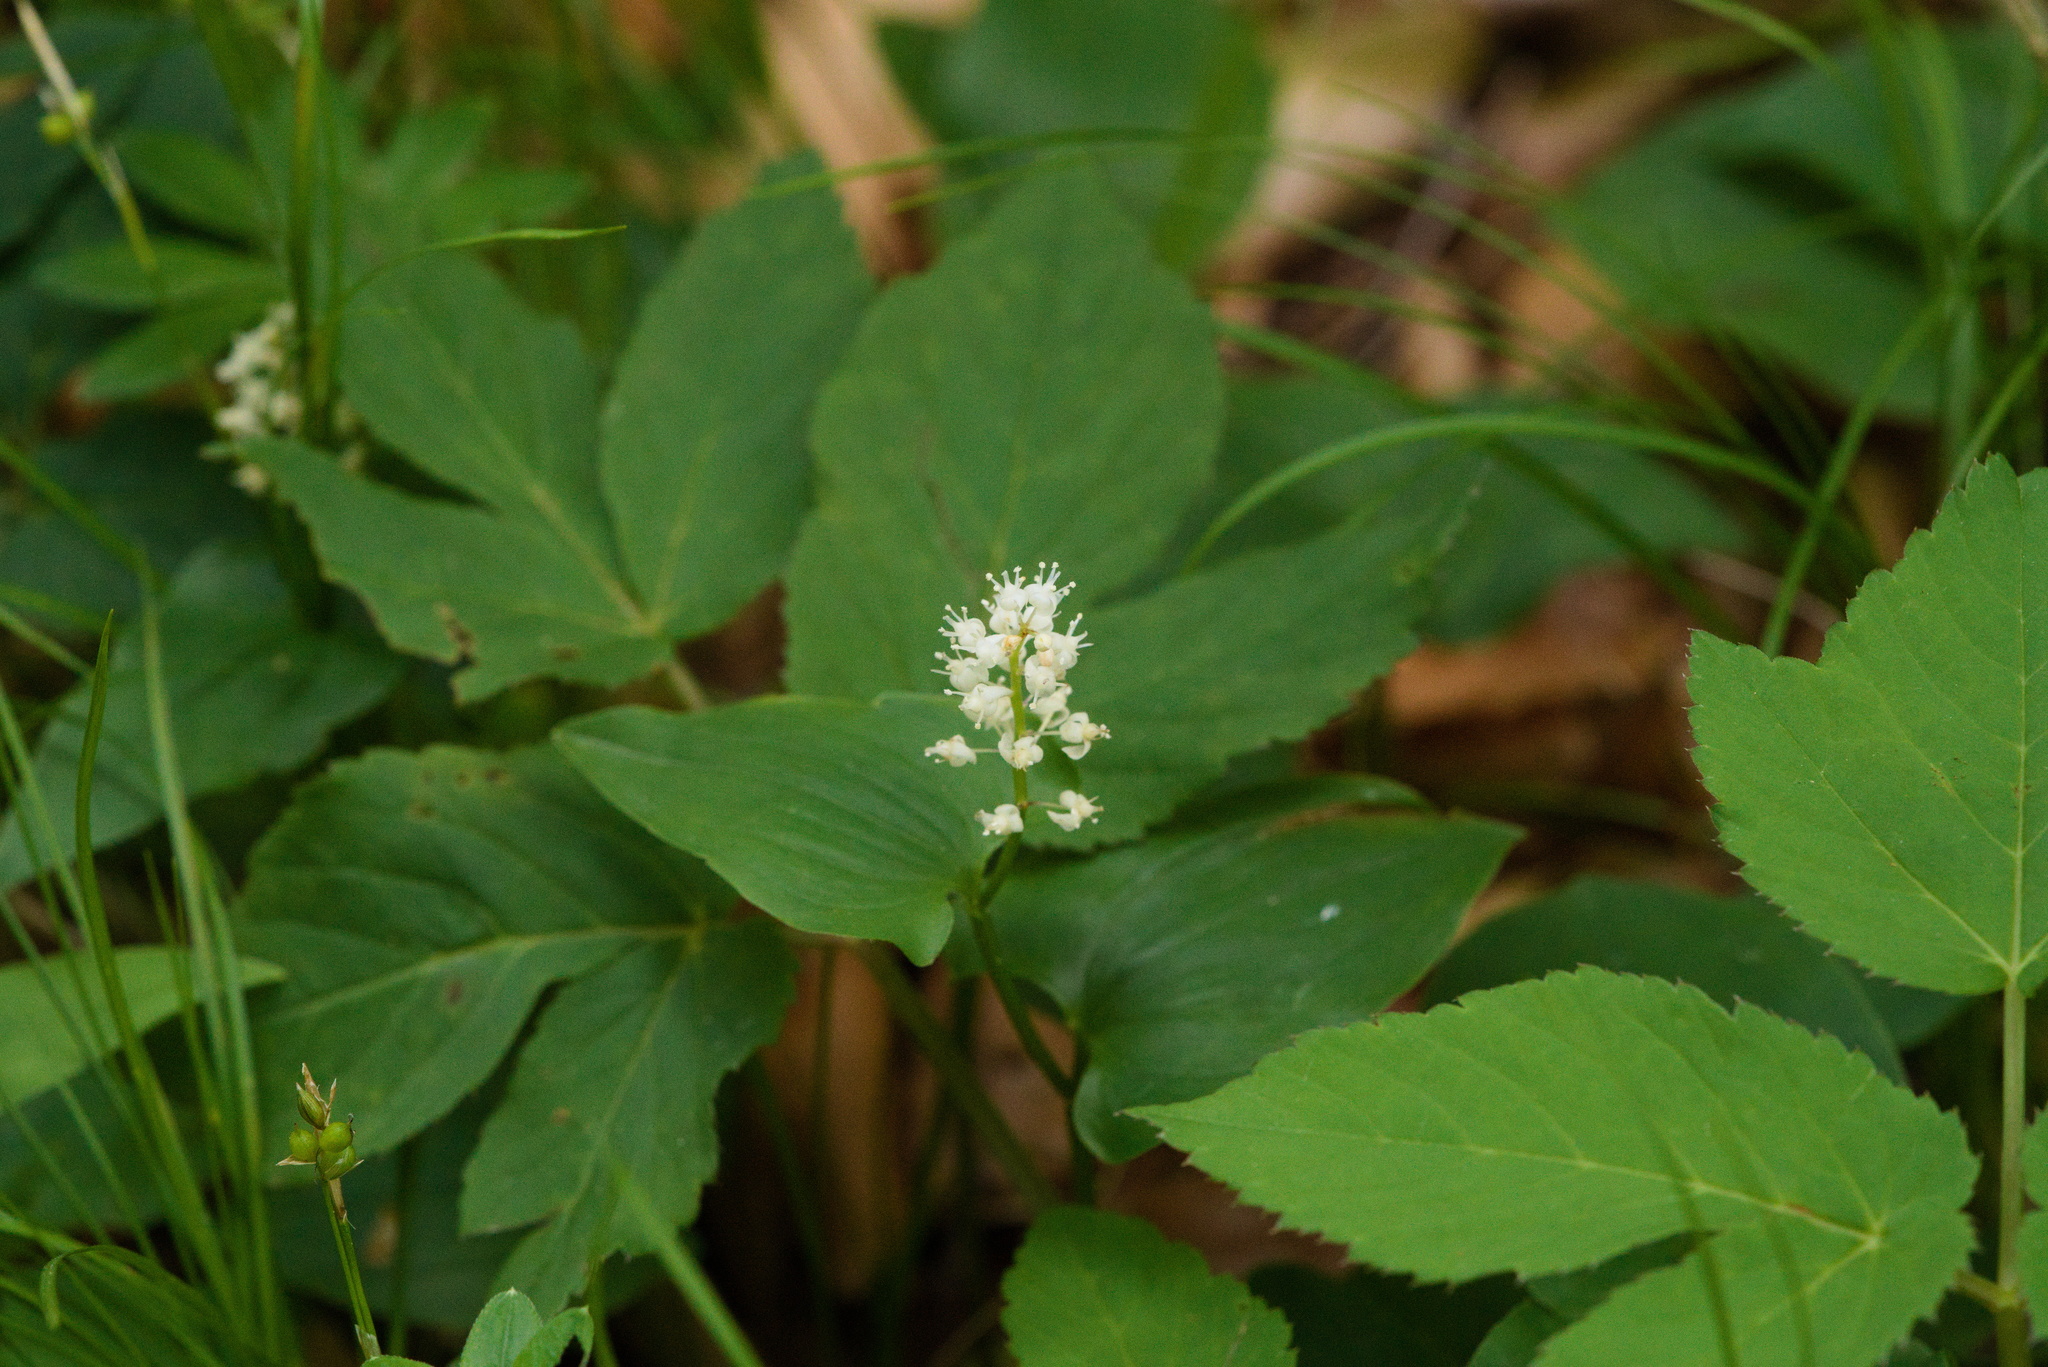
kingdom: Plantae
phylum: Tracheophyta
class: Liliopsida
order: Asparagales
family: Asparagaceae
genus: Maianthemum
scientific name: Maianthemum bifolium
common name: May lily
